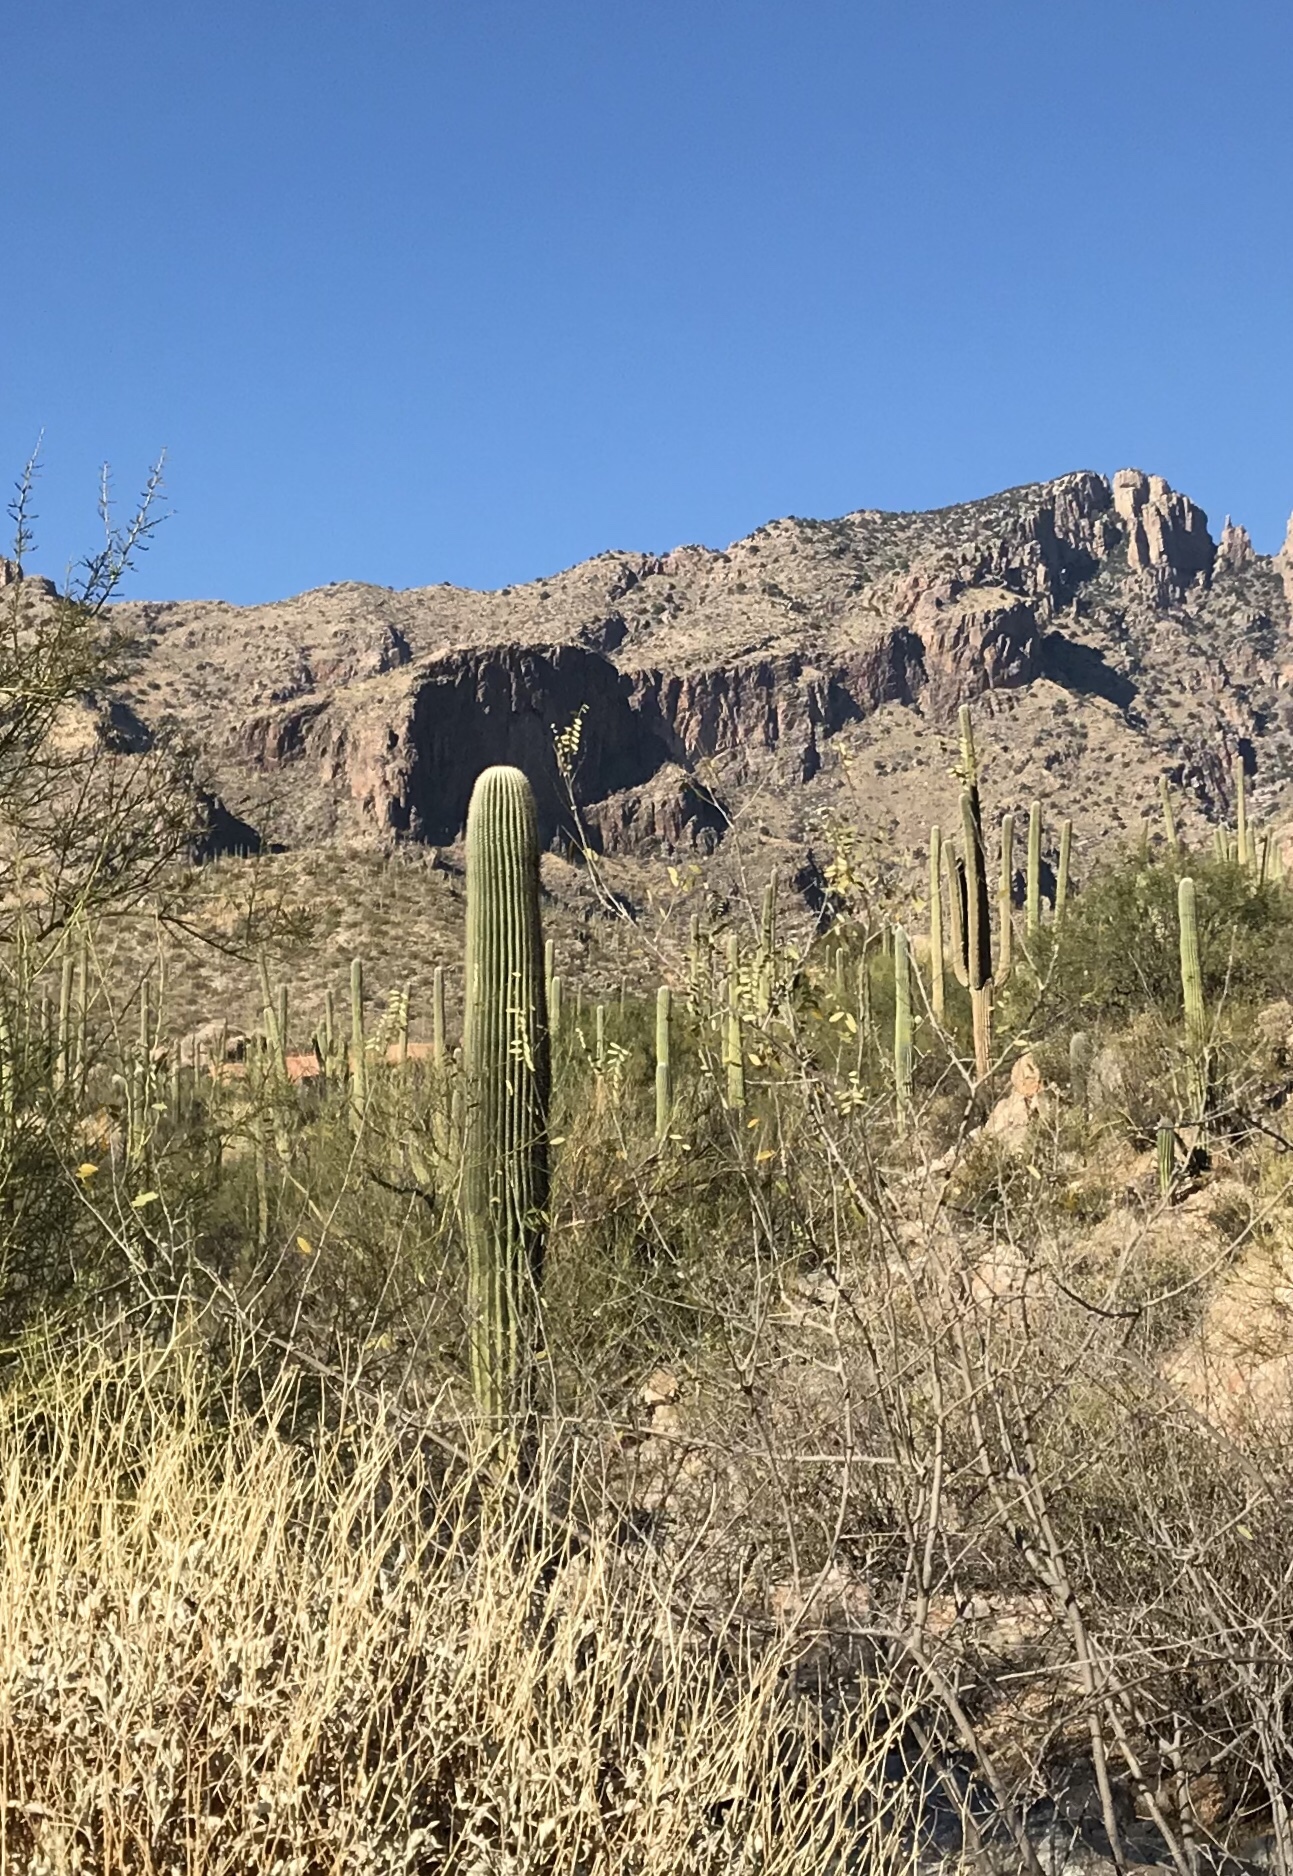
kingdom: Plantae
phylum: Tracheophyta
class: Magnoliopsida
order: Caryophyllales
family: Cactaceae
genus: Carnegiea
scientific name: Carnegiea gigantea
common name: Saguaro
